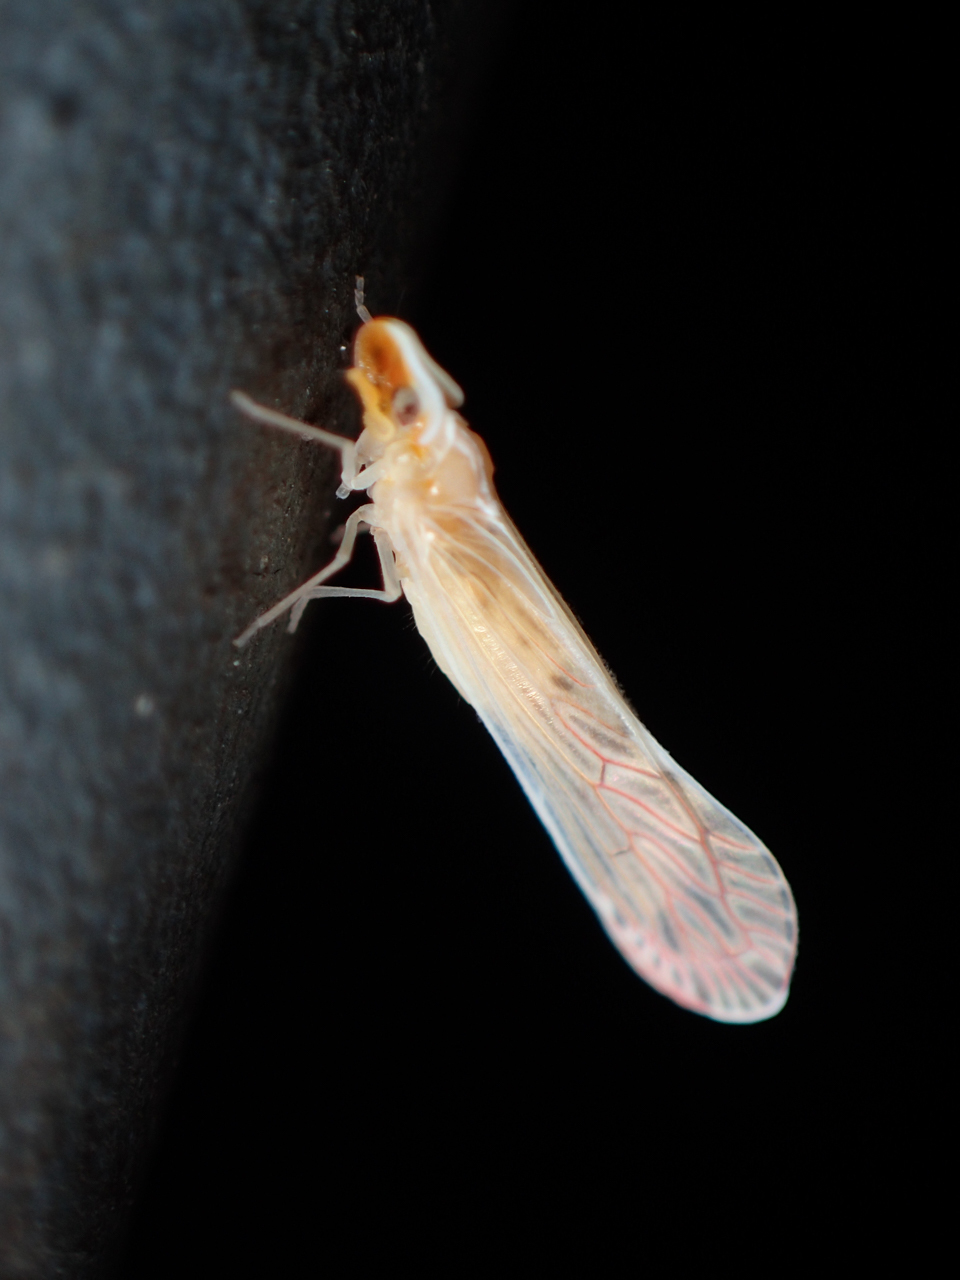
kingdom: Animalia
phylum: Arthropoda
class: Insecta
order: Hemiptera
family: Derbidae
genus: Shellenius
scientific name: Shellenius schellenbergii
